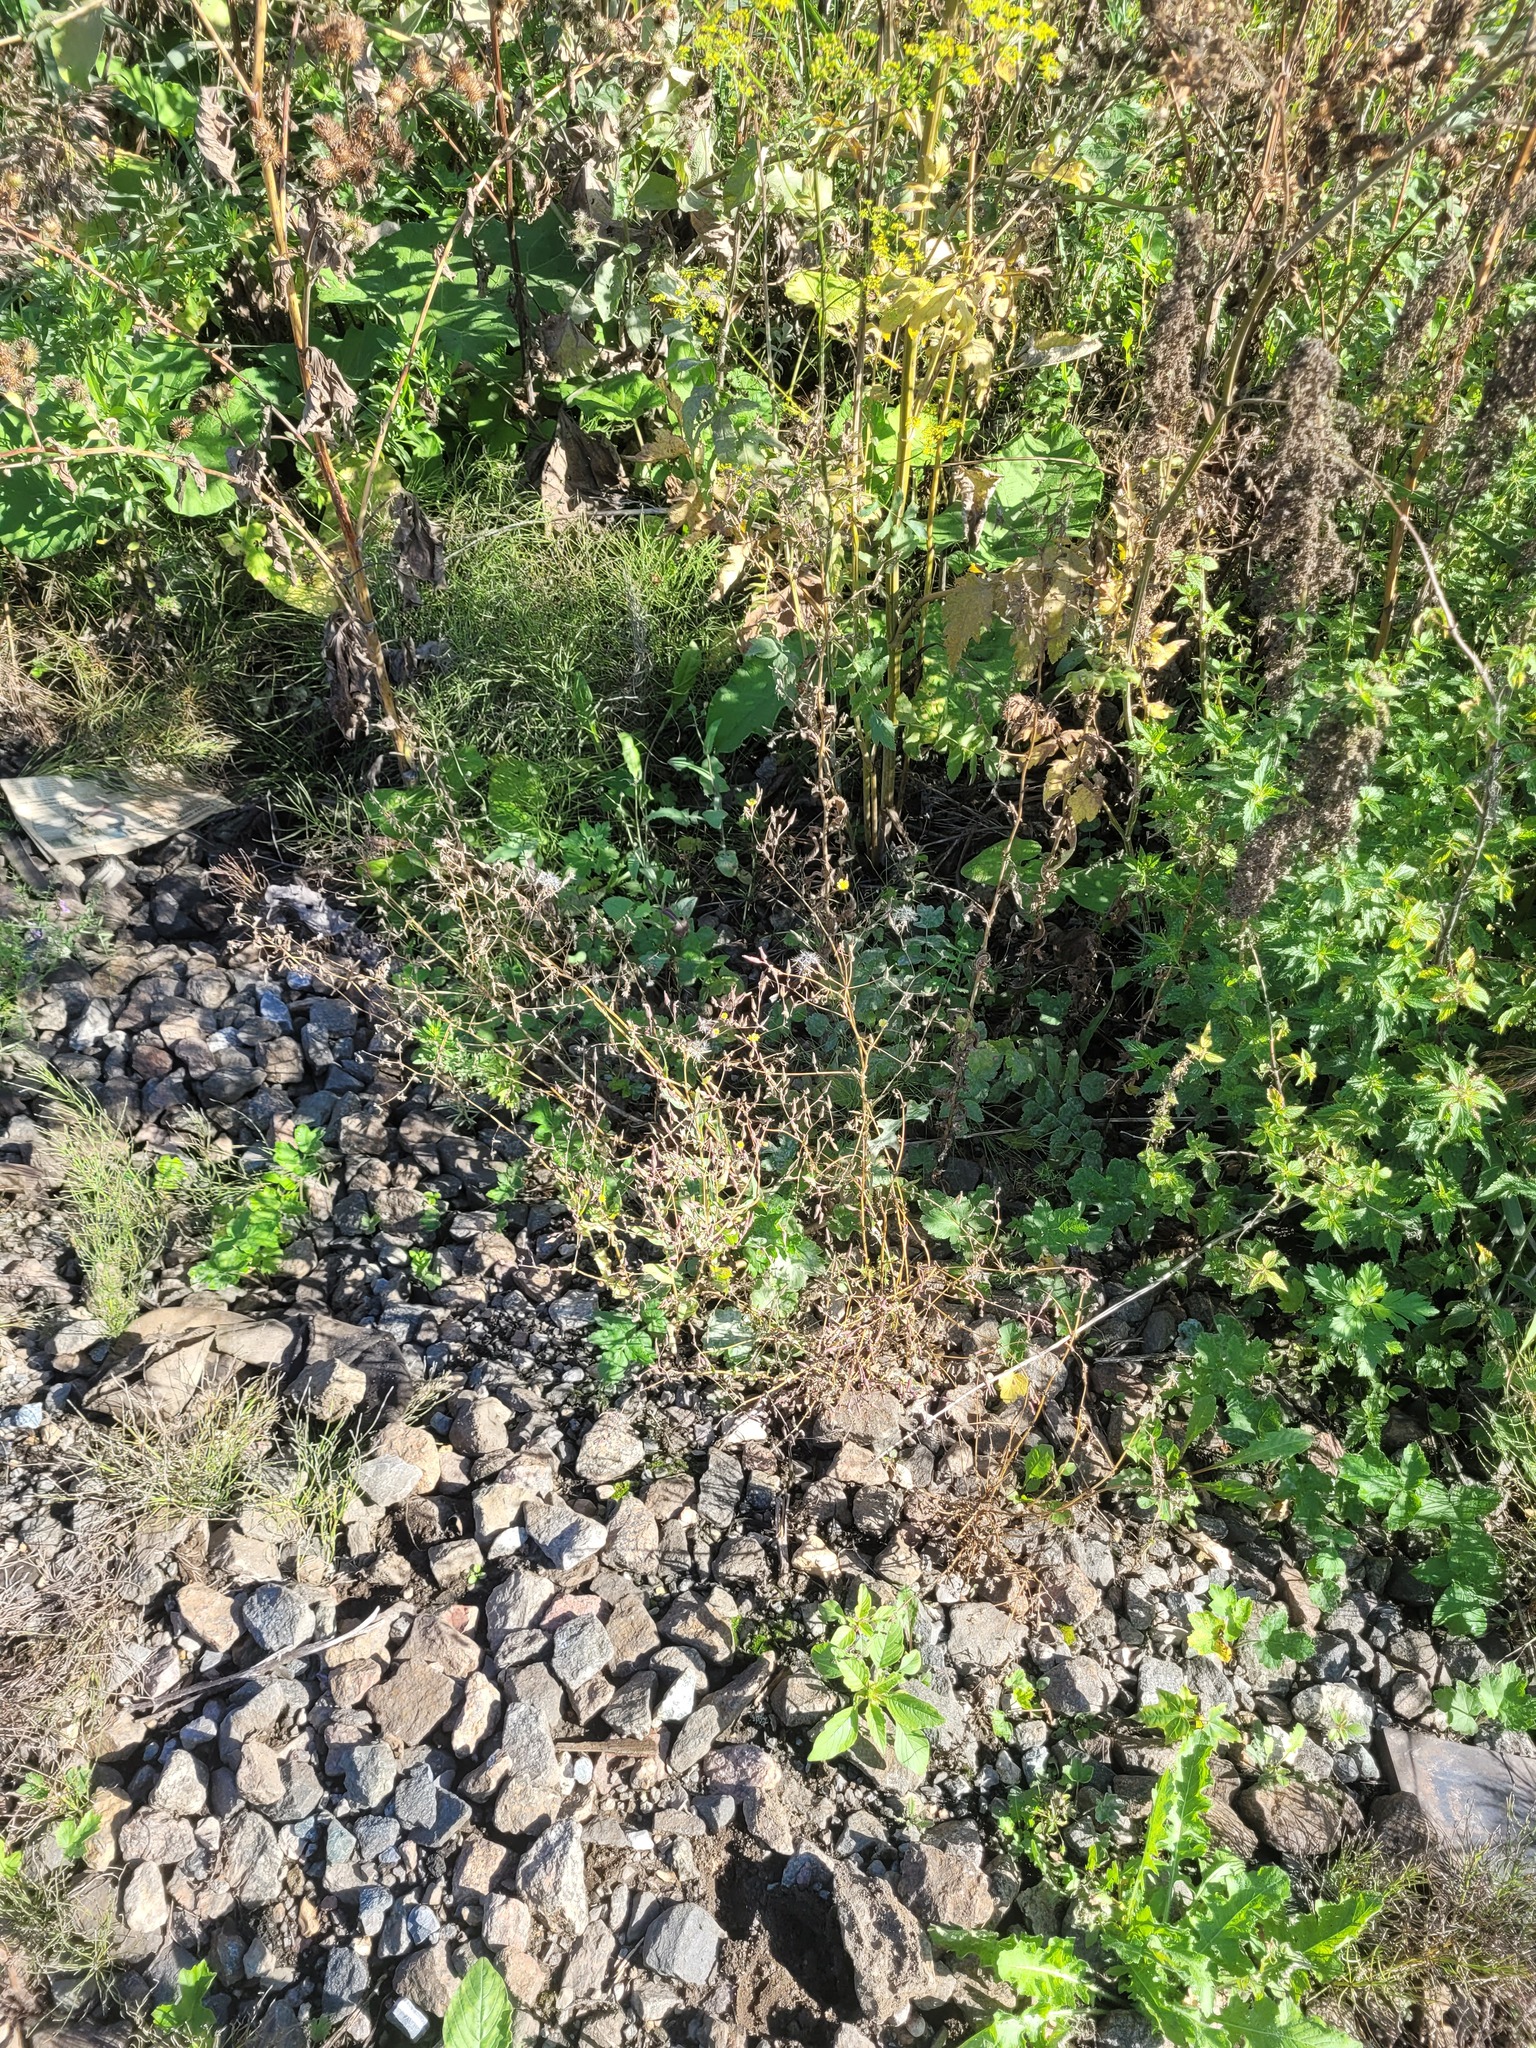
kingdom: Plantae
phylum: Tracheophyta
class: Magnoliopsida
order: Asterales
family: Asteraceae
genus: Lactuca
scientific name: Lactuca serriola
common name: Prickly lettuce
